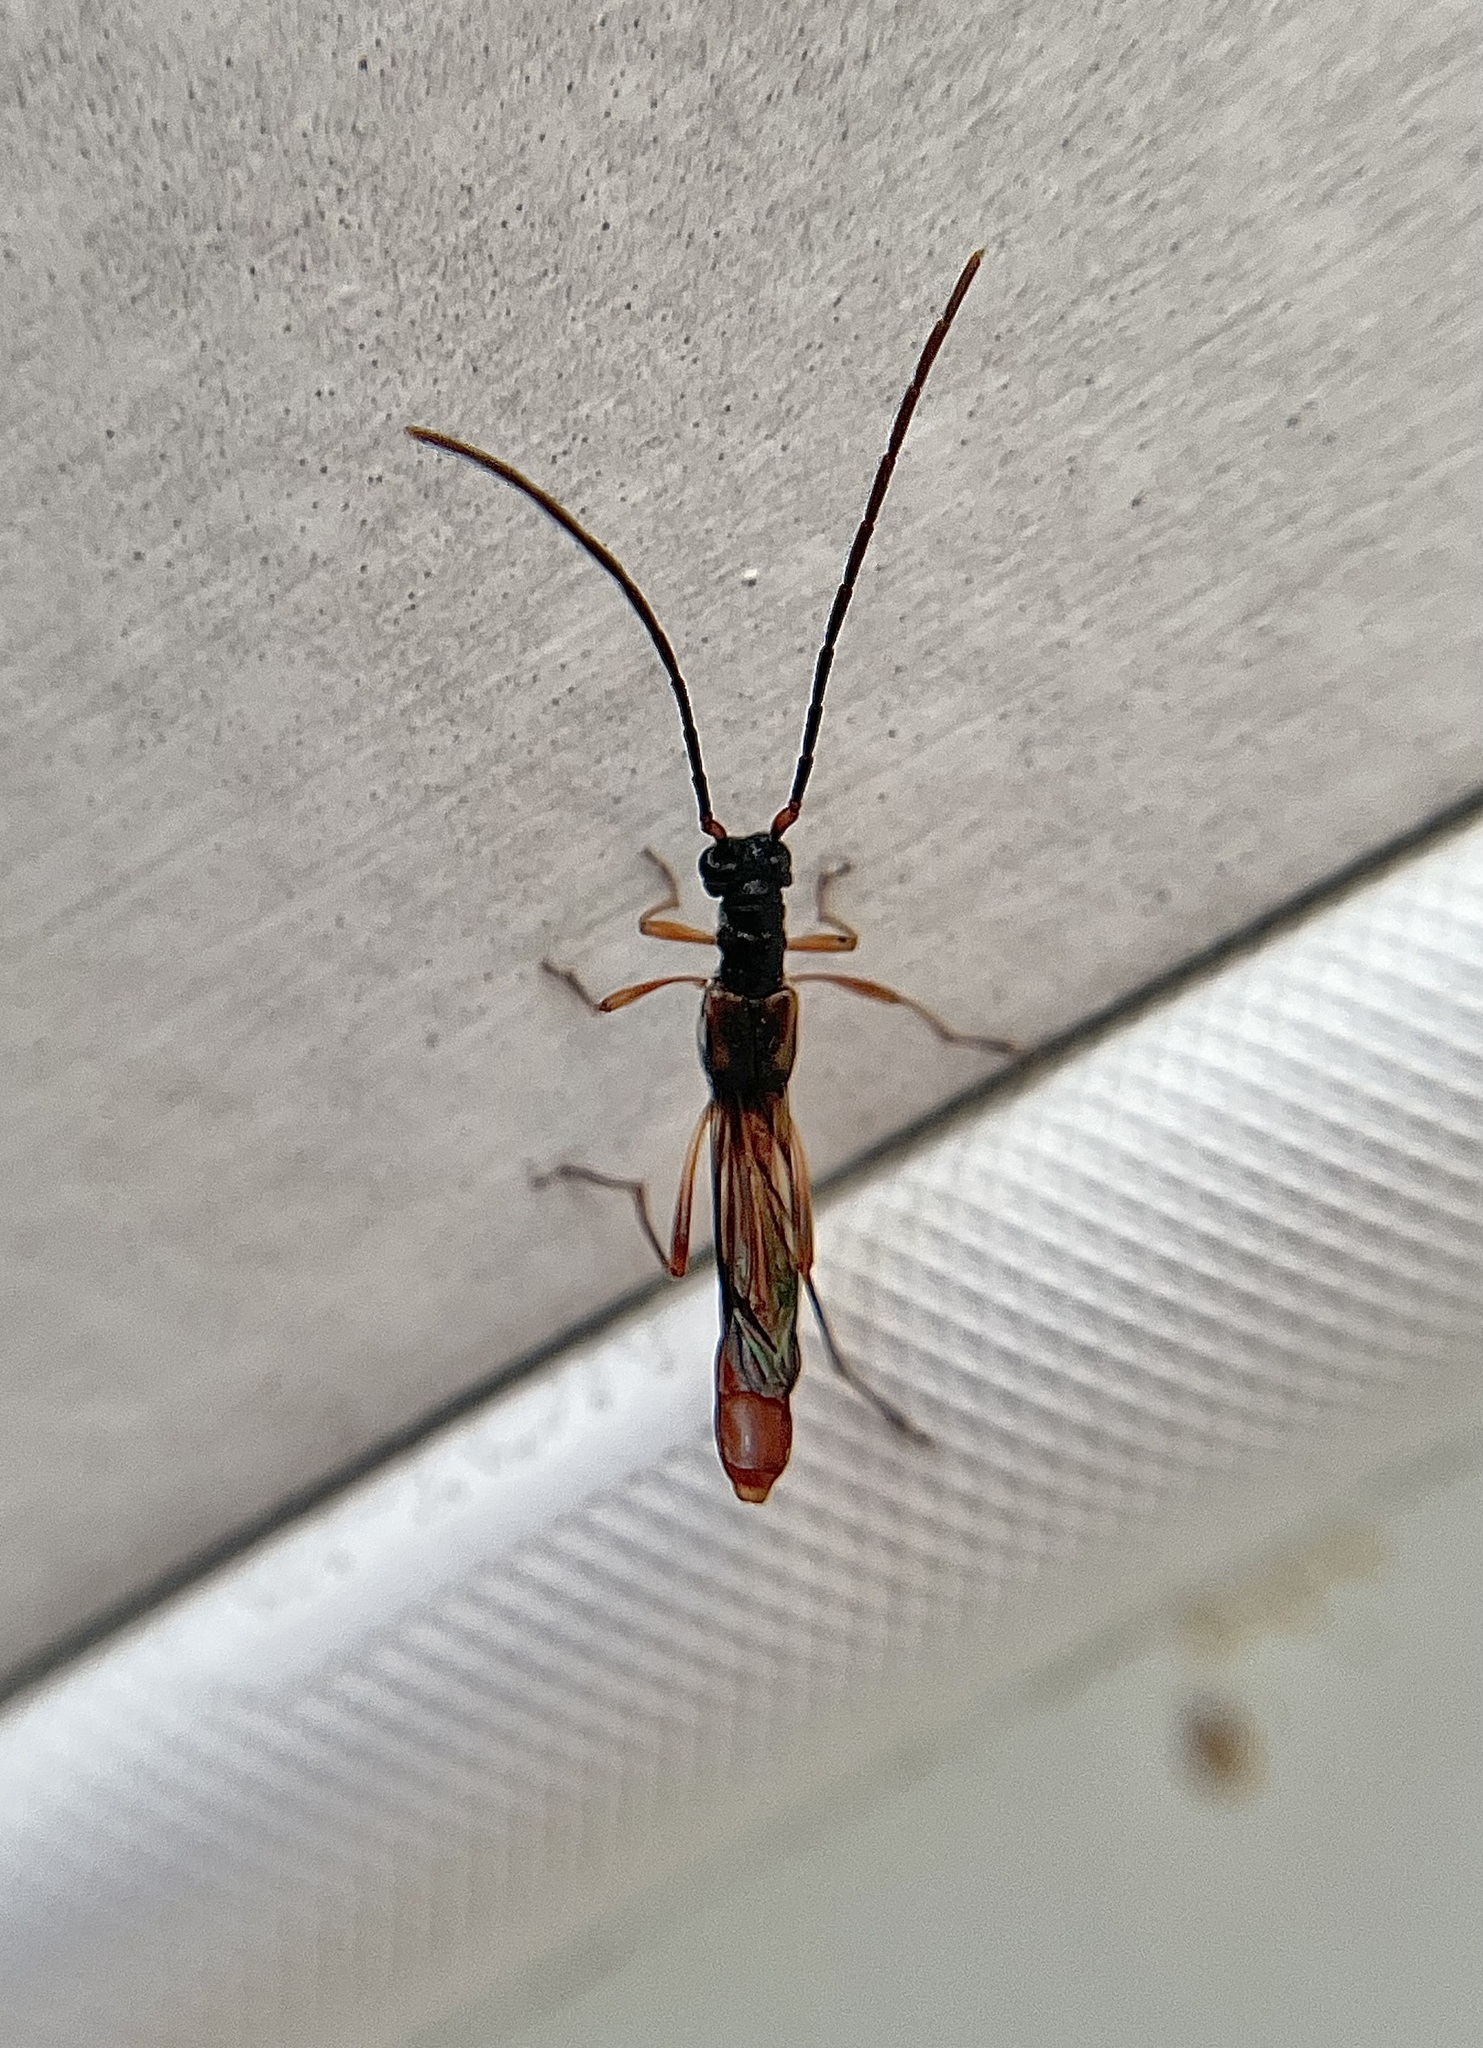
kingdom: Animalia
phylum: Arthropoda
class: Insecta
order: Coleoptera
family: Cerambycidae
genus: Necydalis
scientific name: Necydalis mellita
